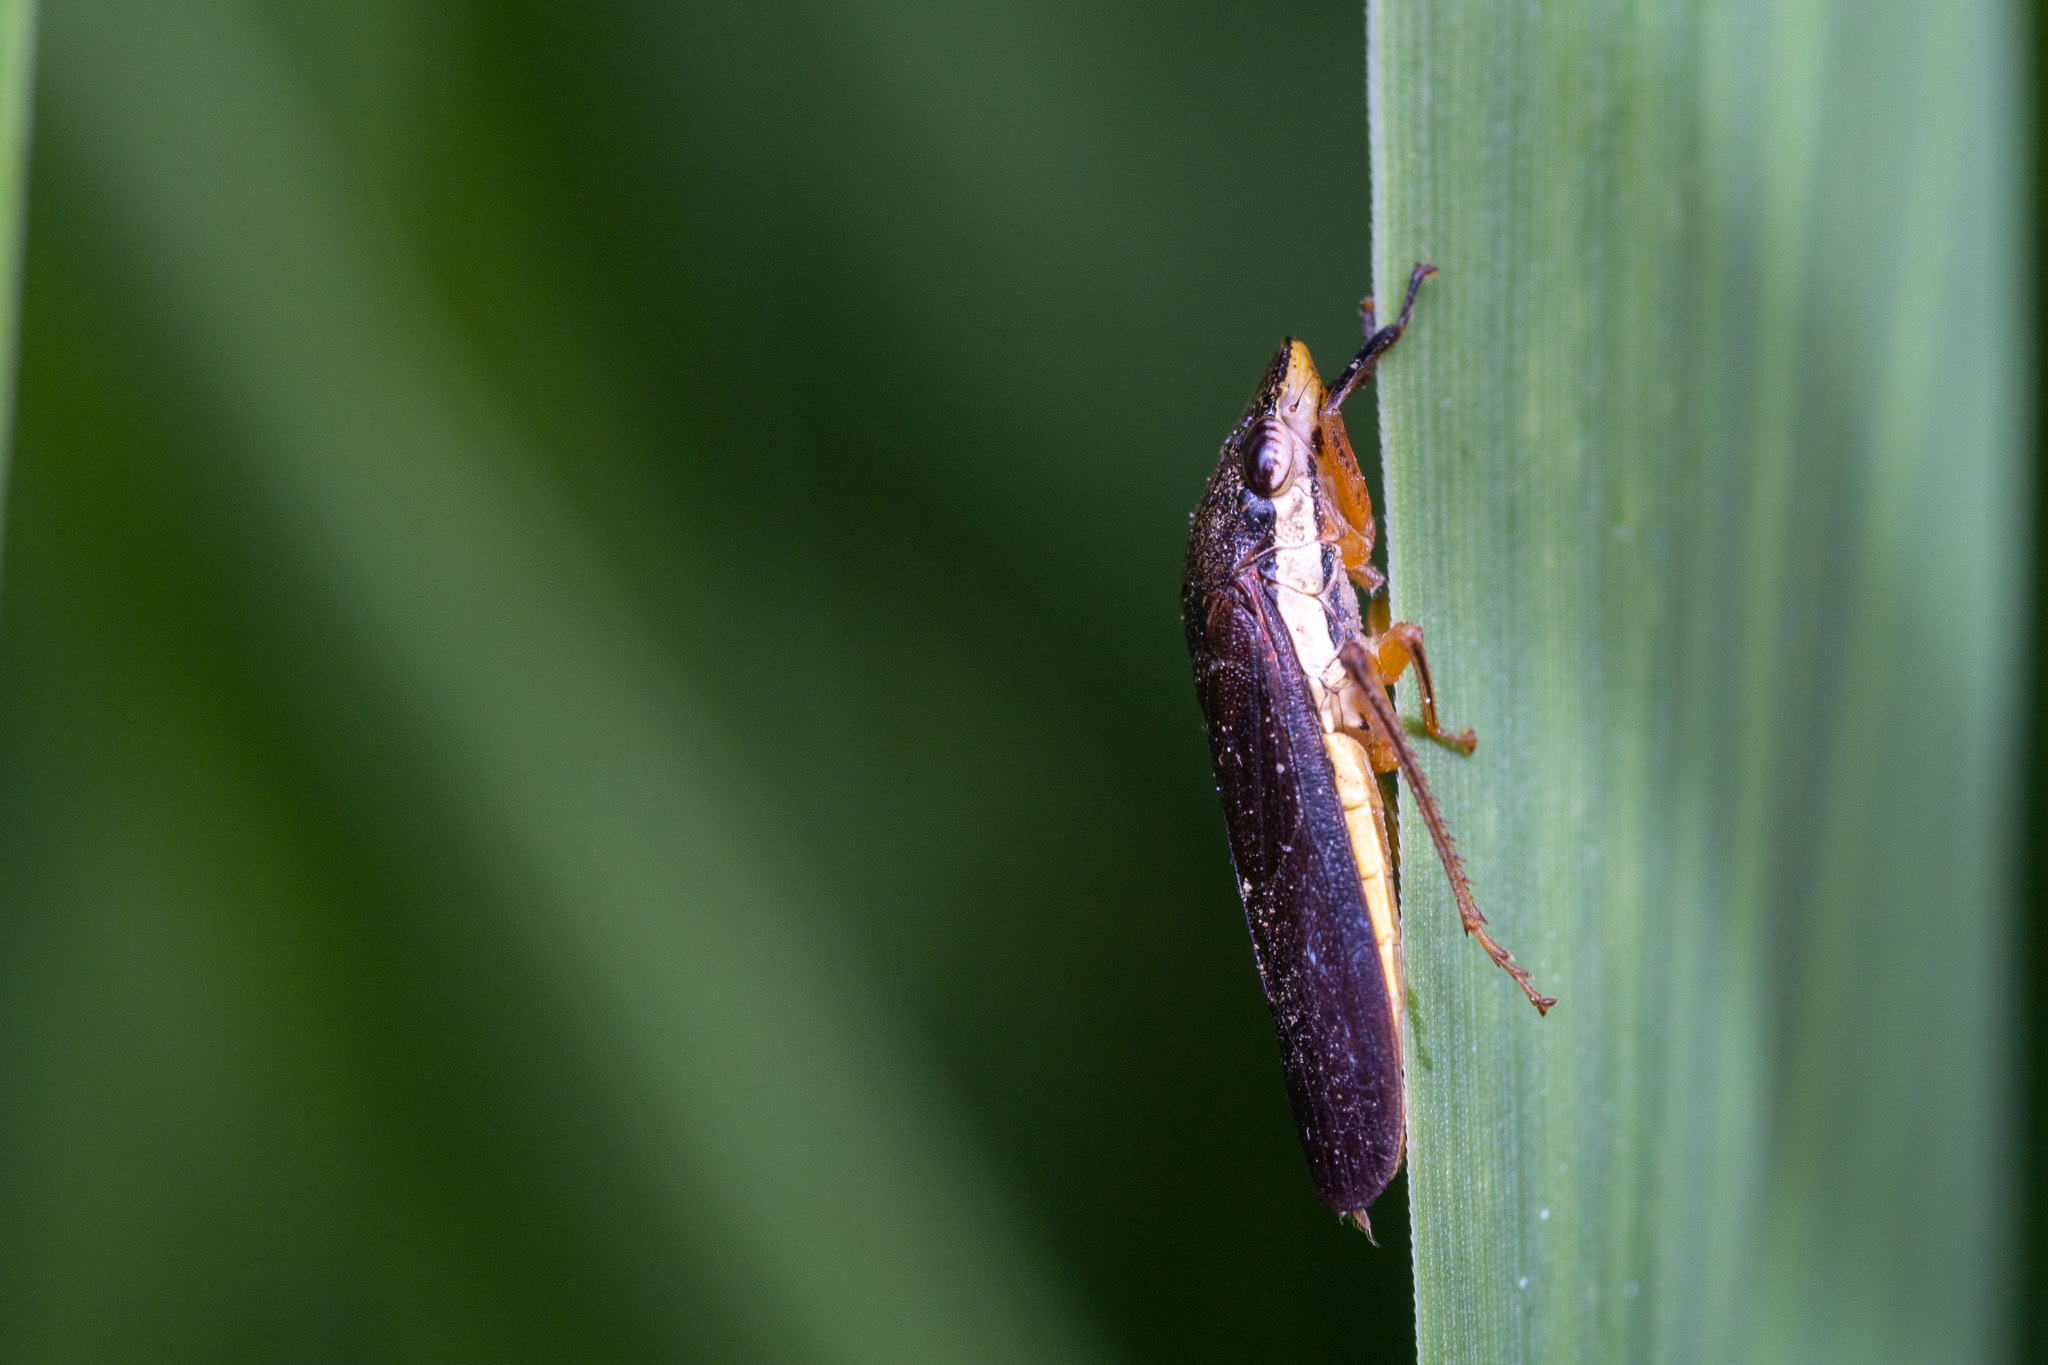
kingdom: Animalia
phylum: Arthropoda
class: Insecta
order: Hemiptera
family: Cicadellidae
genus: Homalodisca
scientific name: Homalodisca insolita
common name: Johnson grass sharpshooter
